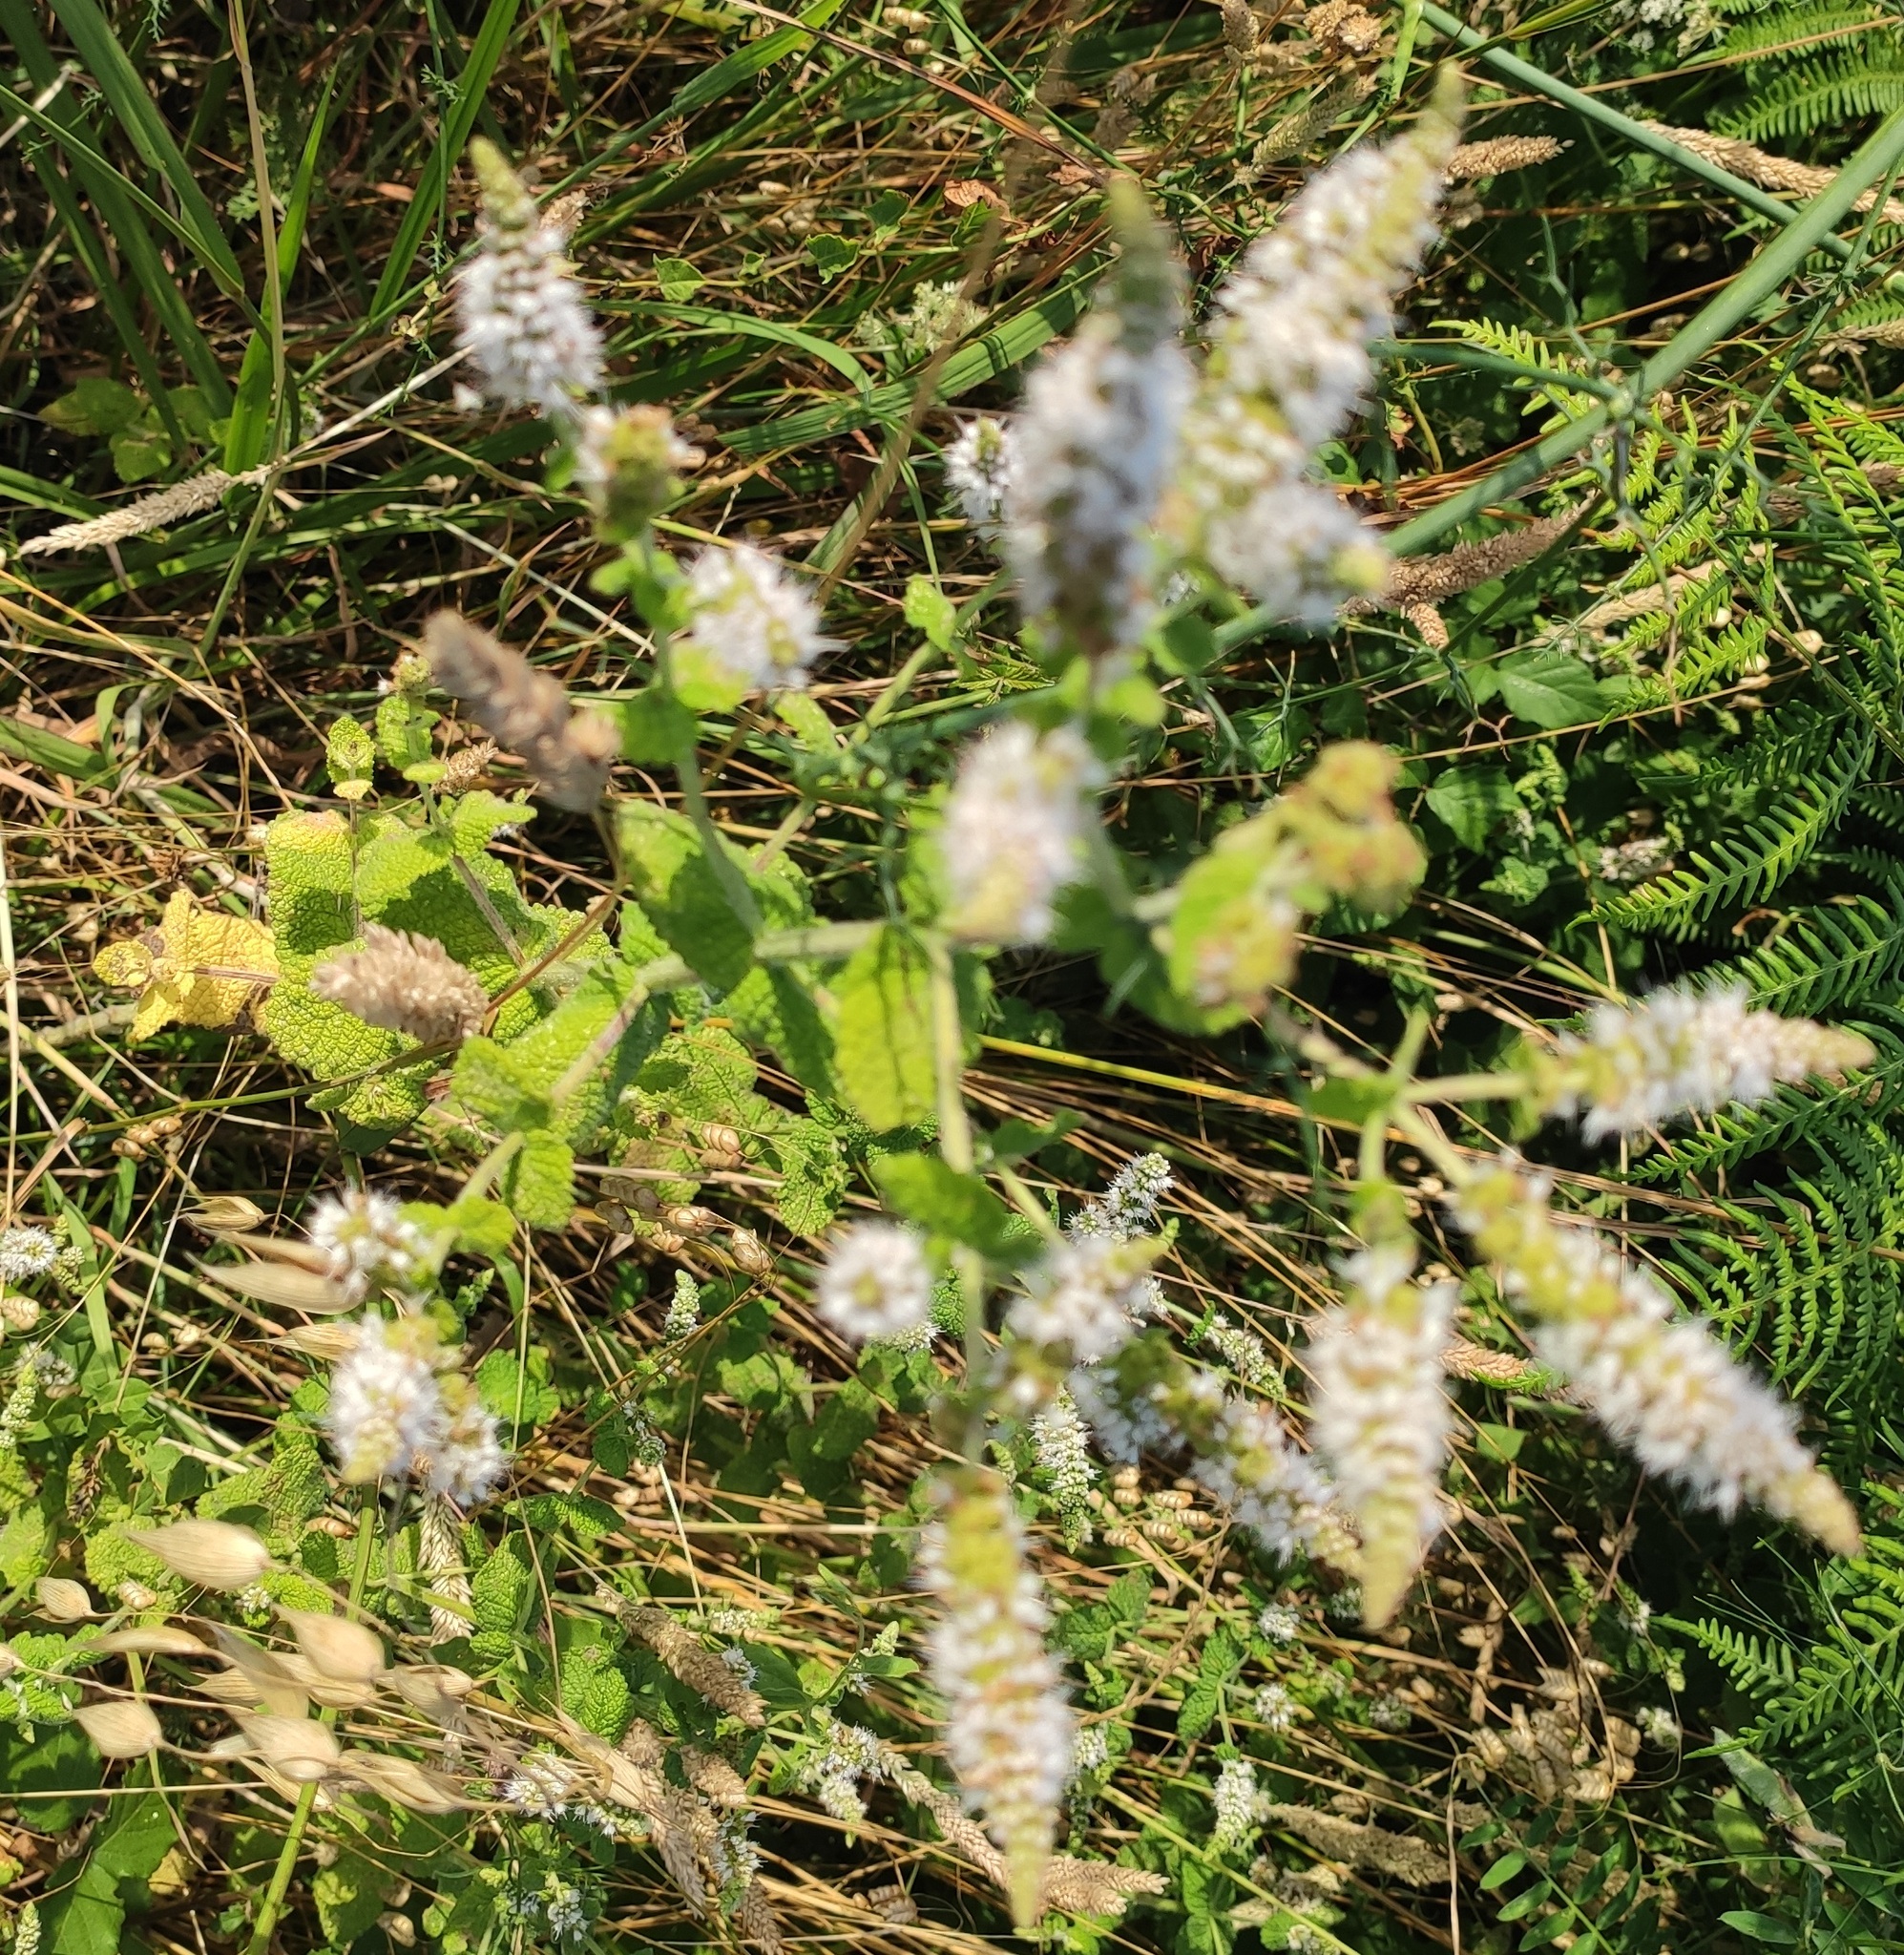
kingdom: Plantae
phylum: Tracheophyta
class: Magnoliopsida
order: Lamiales
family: Lamiaceae
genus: Mentha
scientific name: Mentha suaveolens
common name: Apple mint
